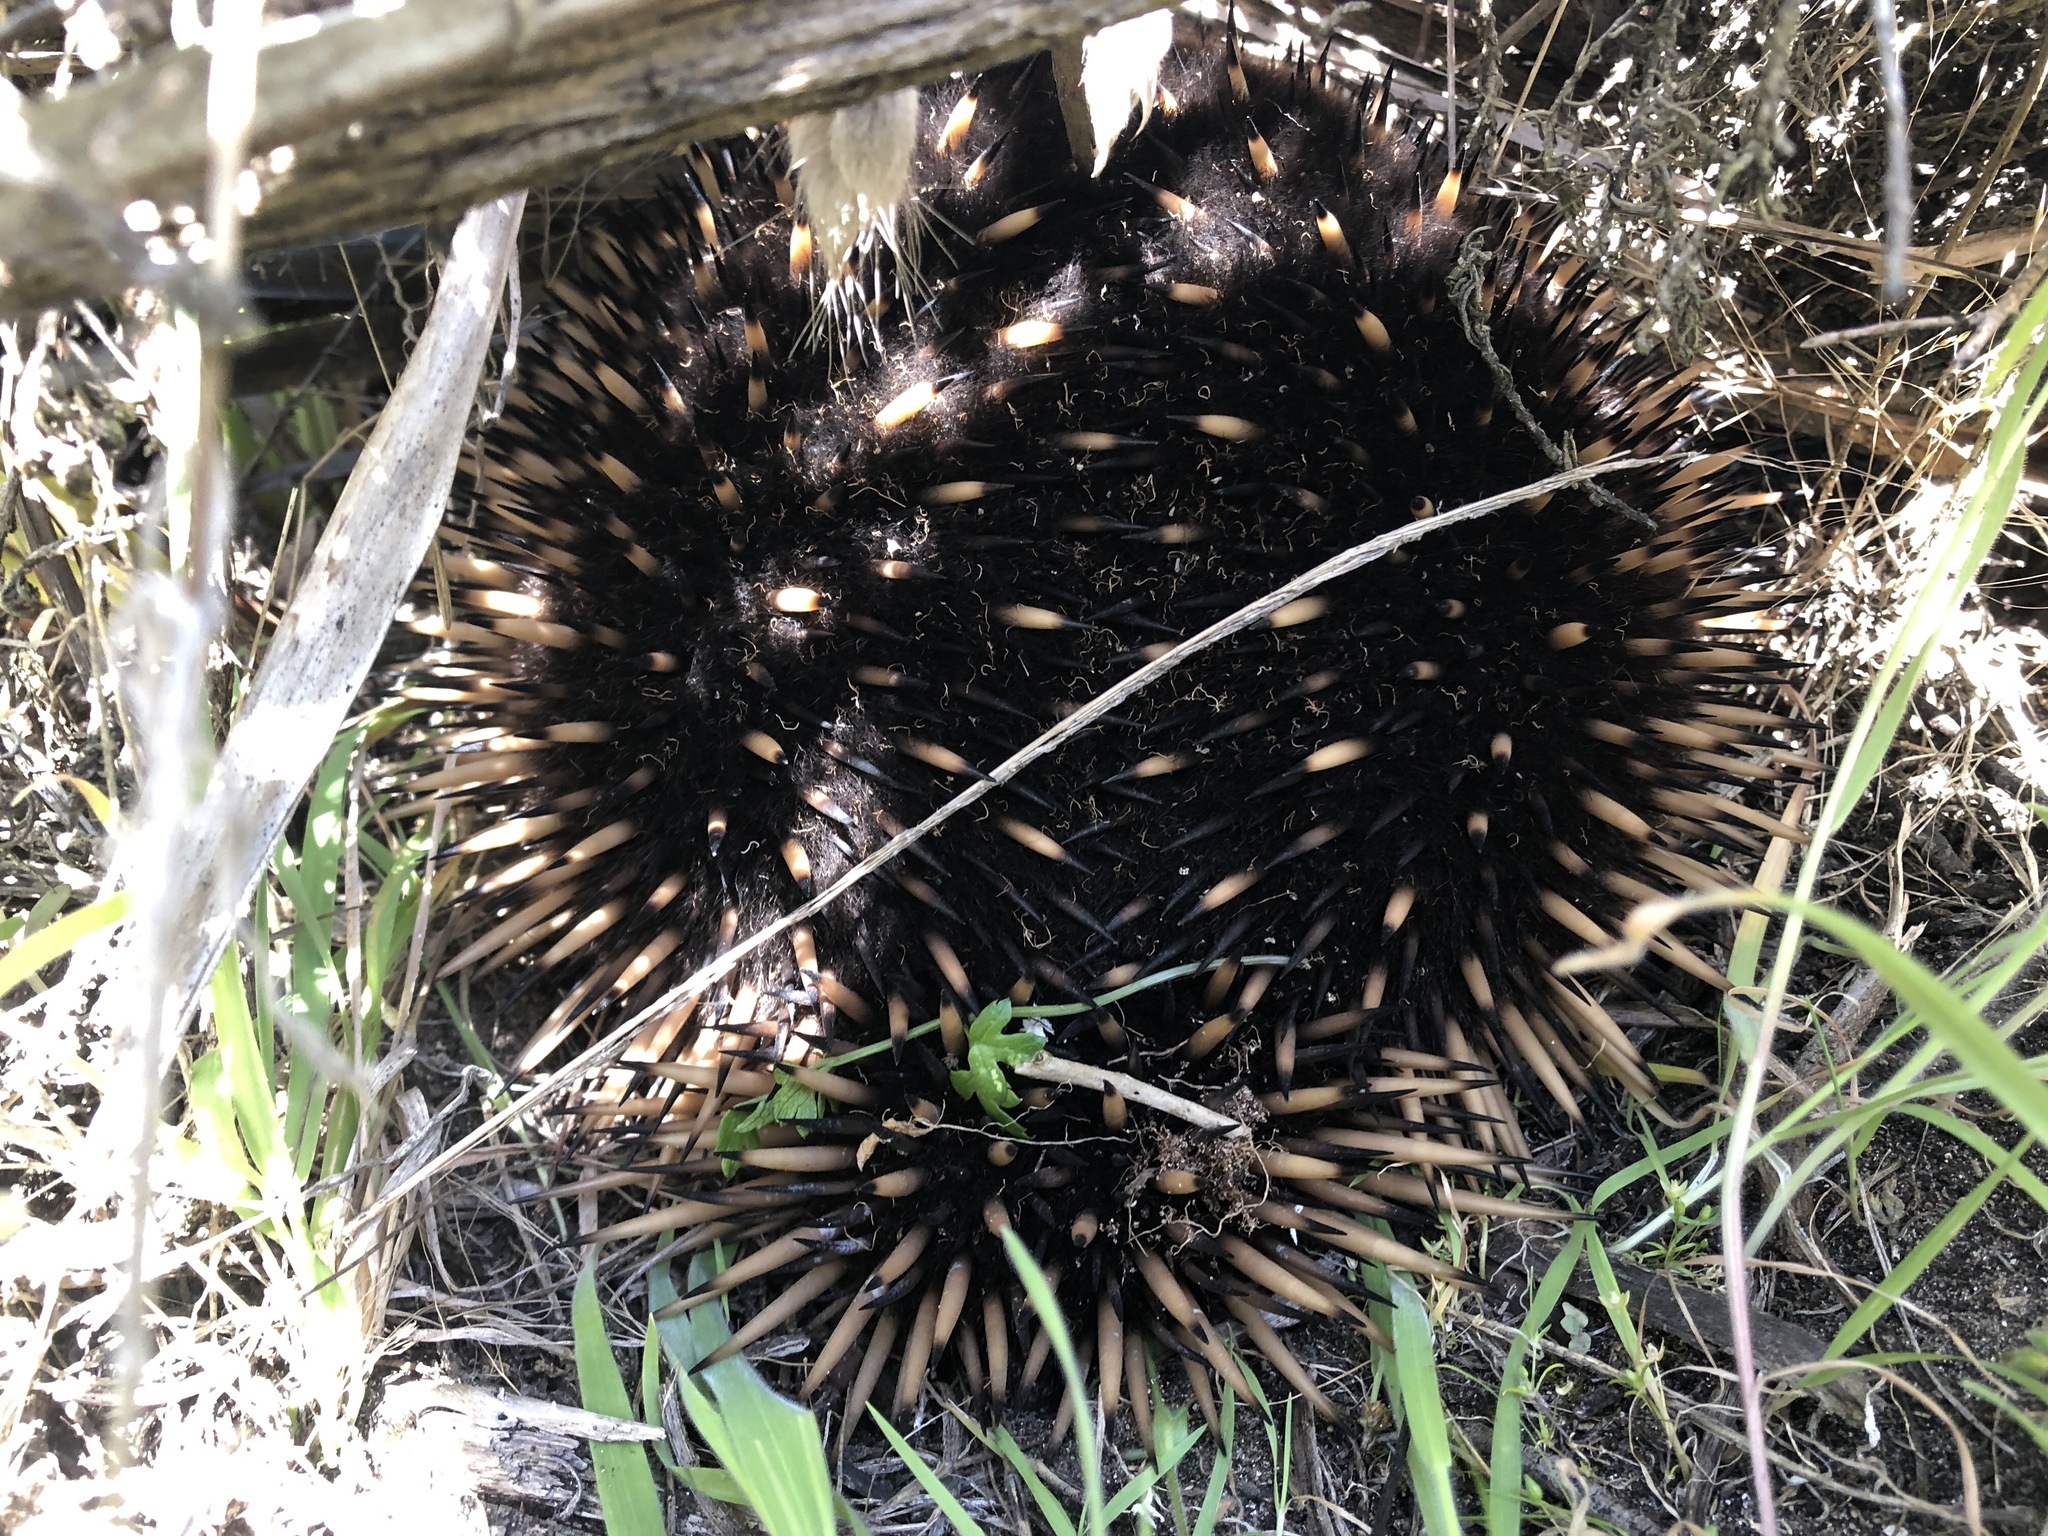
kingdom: Animalia
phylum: Chordata
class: Mammalia
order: Monotremata
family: Tachyglossidae
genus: Tachyglossus
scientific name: Tachyglossus aculeatus
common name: Short-beaked echidna
